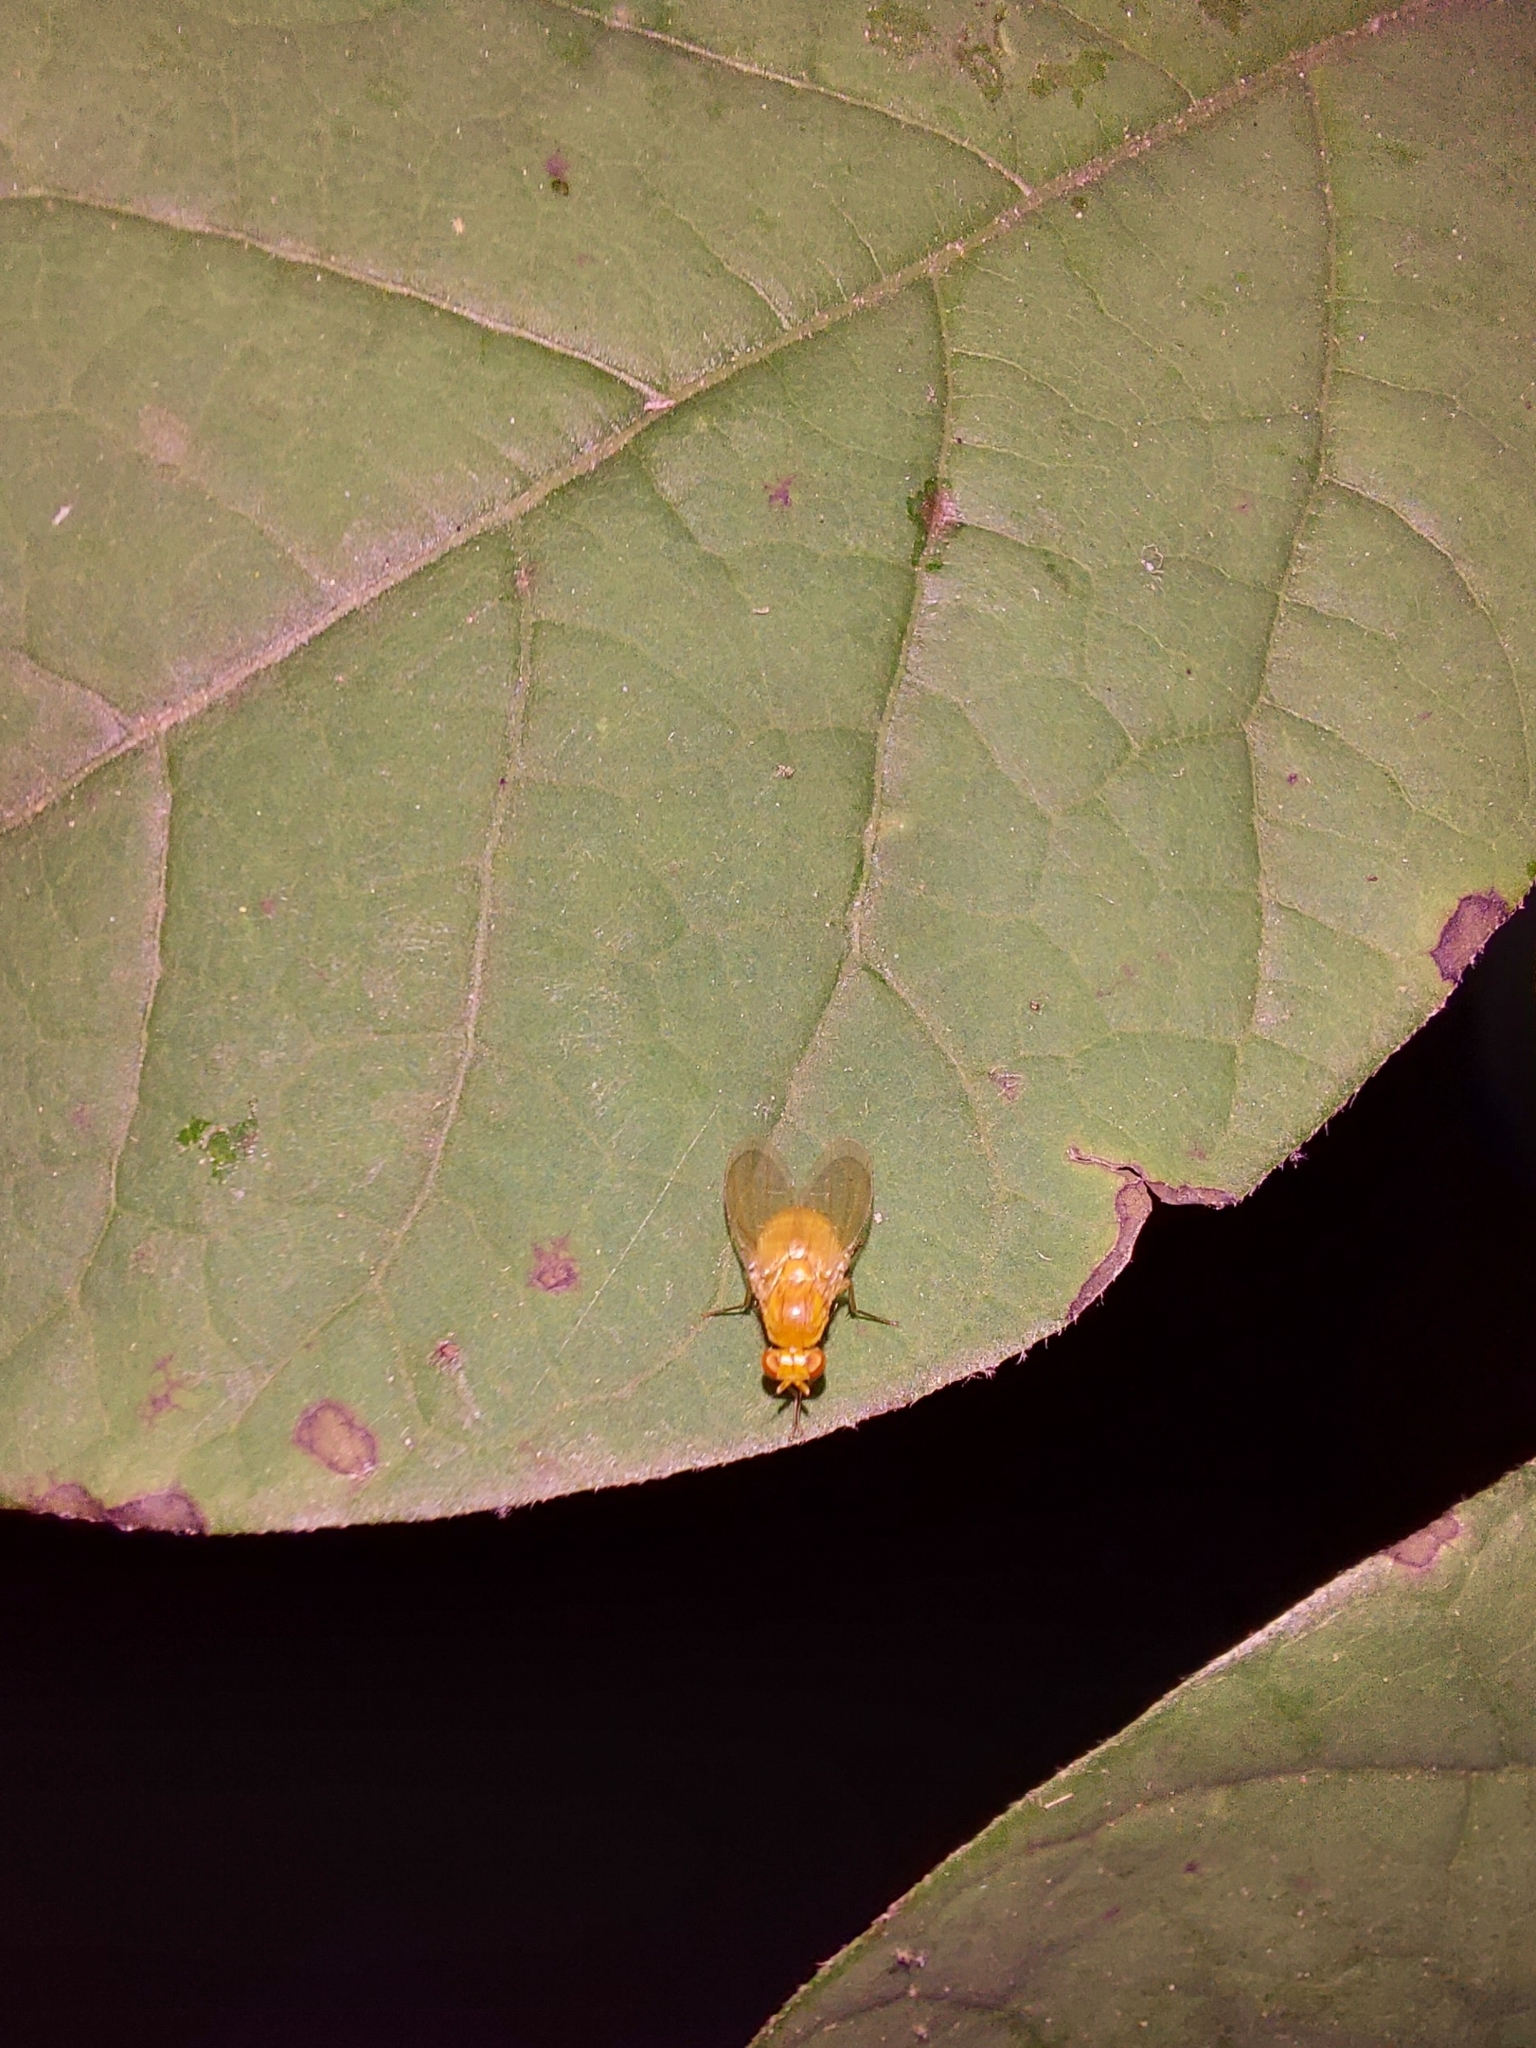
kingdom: Animalia
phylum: Arthropoda
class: Insecta
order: Diptera
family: Lauxaniidae
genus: Neogriphoneura
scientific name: Neogriphoneura sordida
